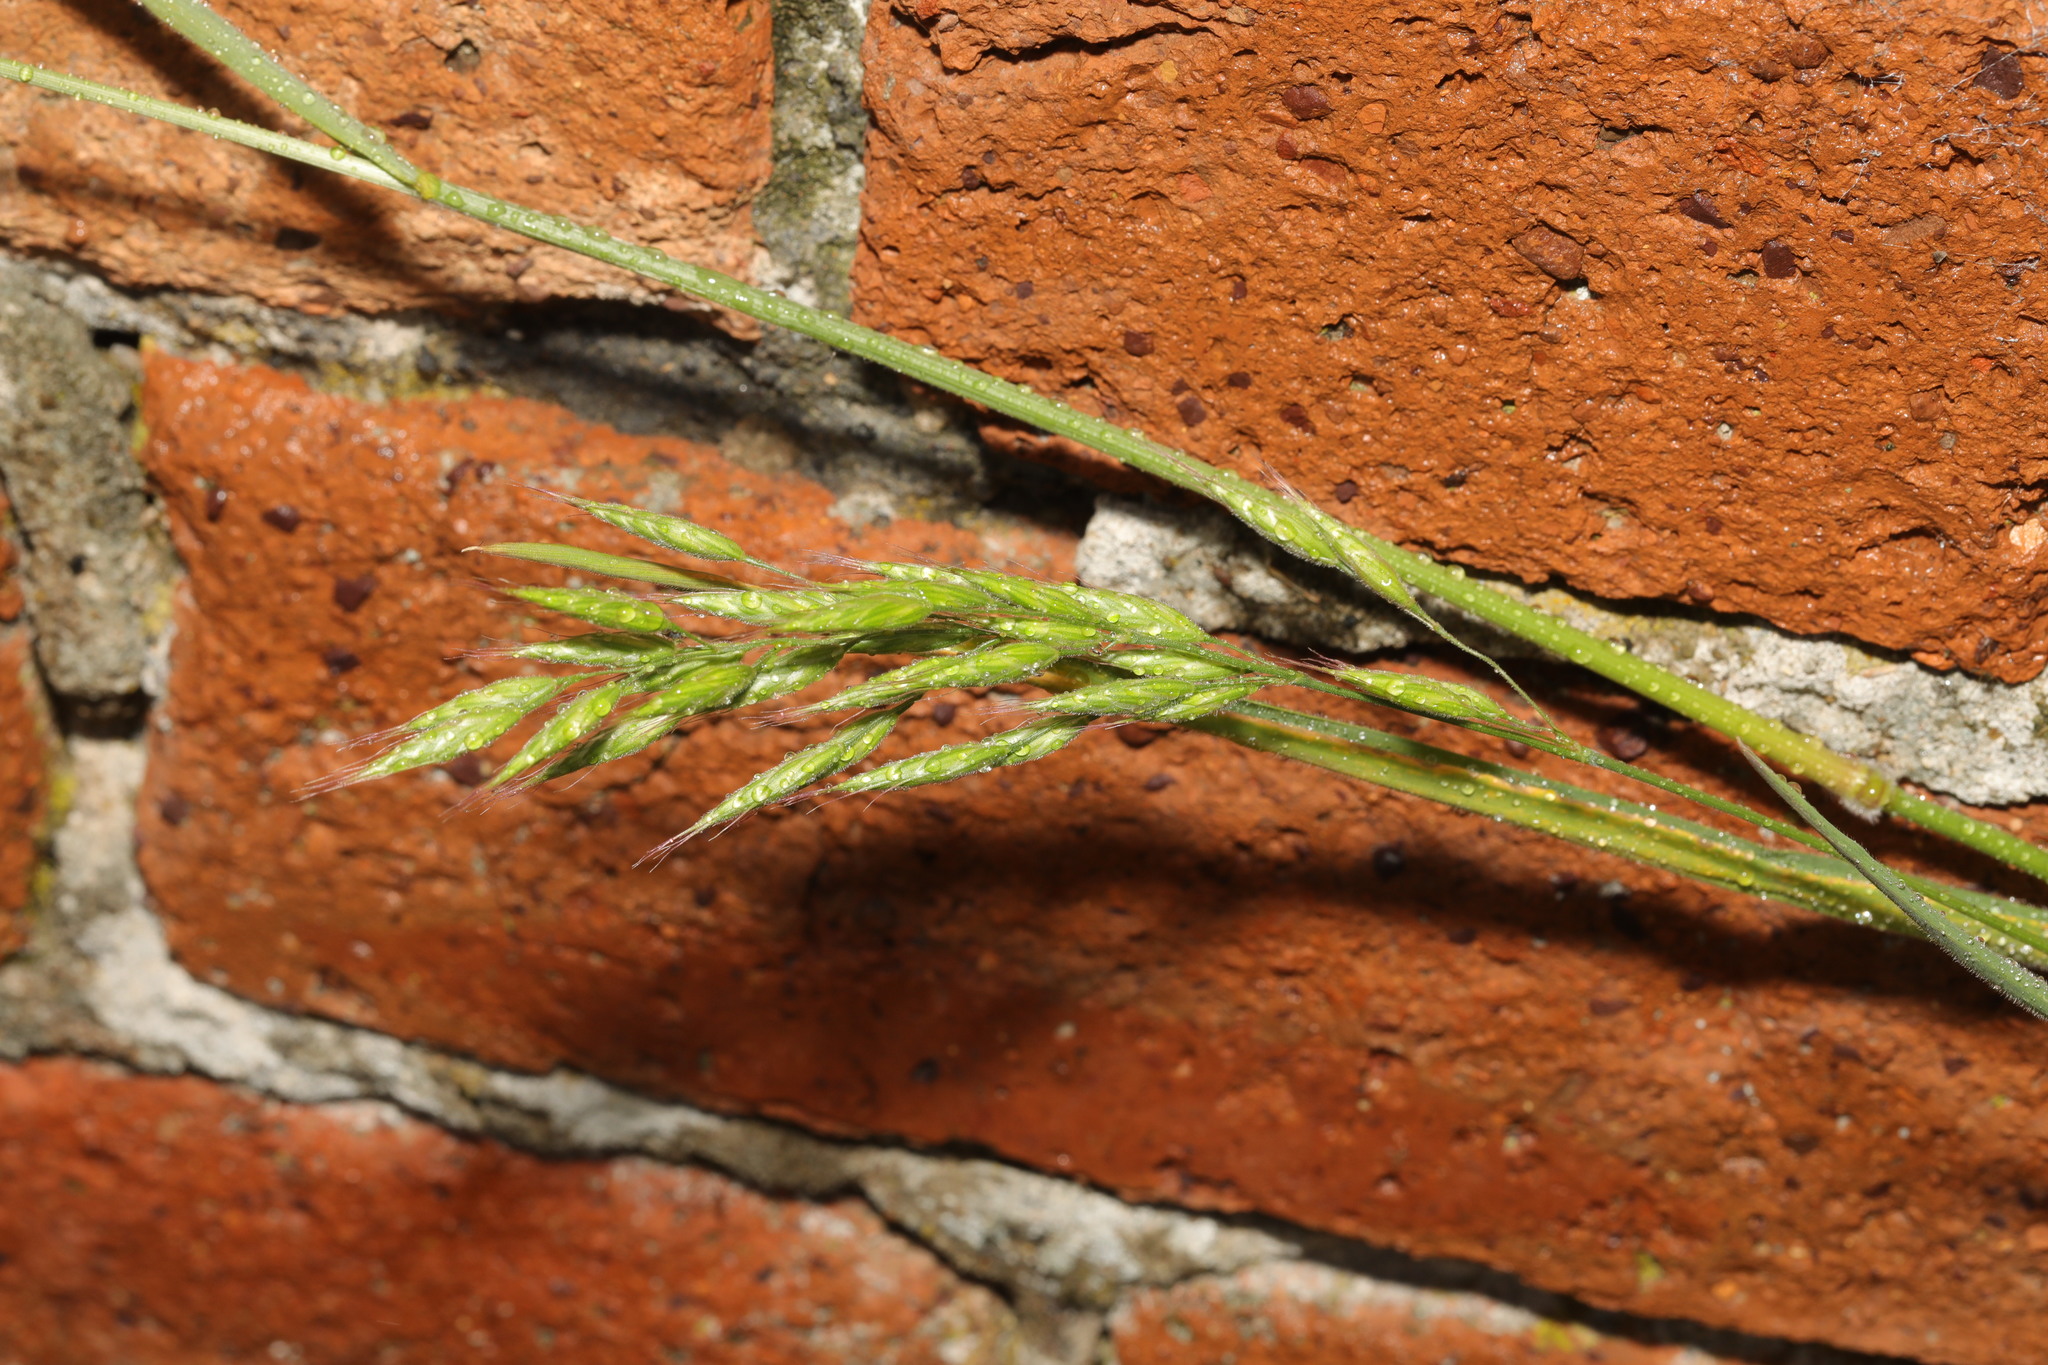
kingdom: Plantae
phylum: Tracheophyta
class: Liliopsida
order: Poales
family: Poaceae
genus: Bromus
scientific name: Bromus hordeaceus
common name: Soft brome
